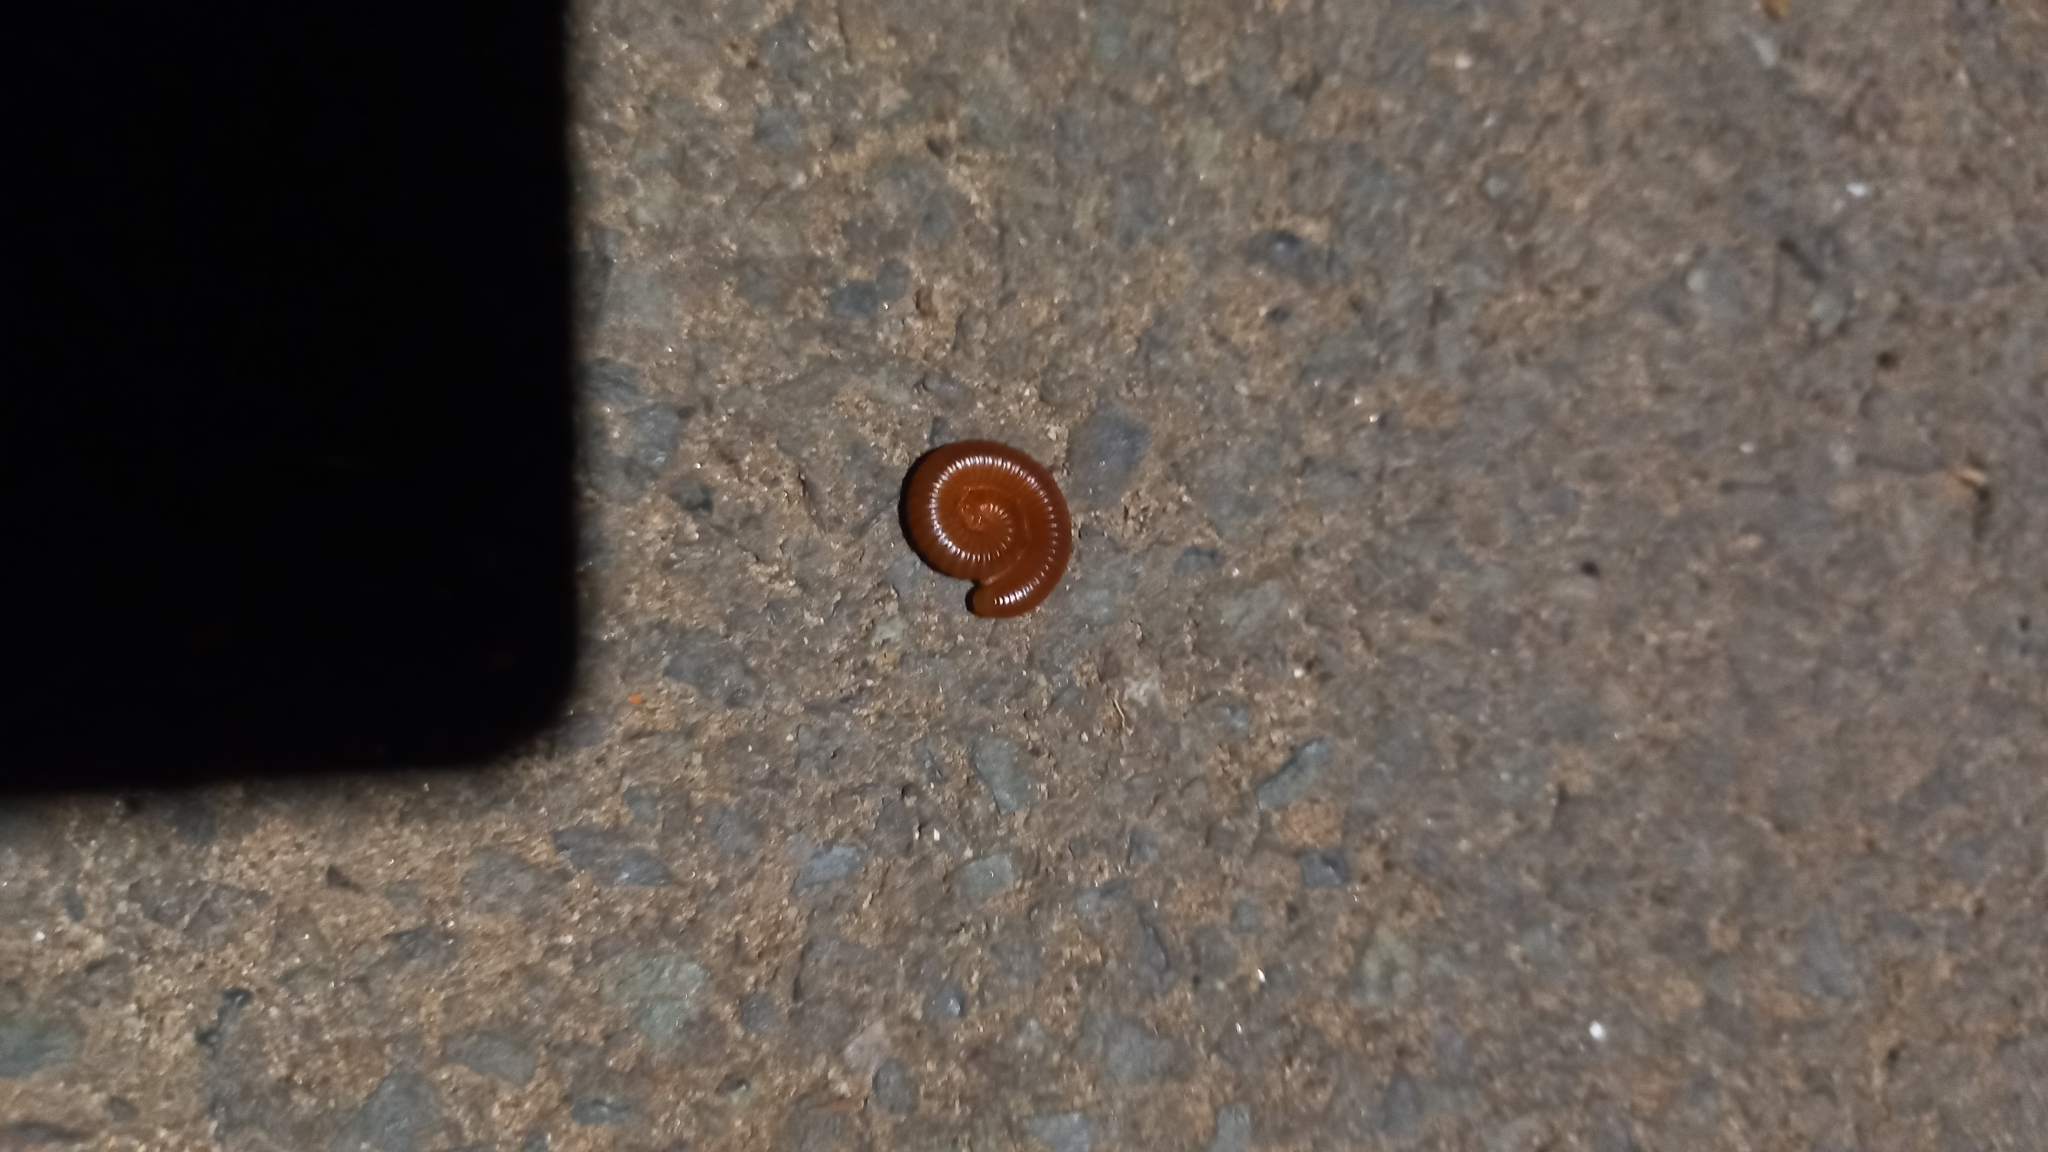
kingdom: Animalia
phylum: Arthropoda
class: Diplopoda
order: Spirobolida
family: Pachybolidae
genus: Trigoniulus
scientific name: Trigoniulus corallinus
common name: Millipede
